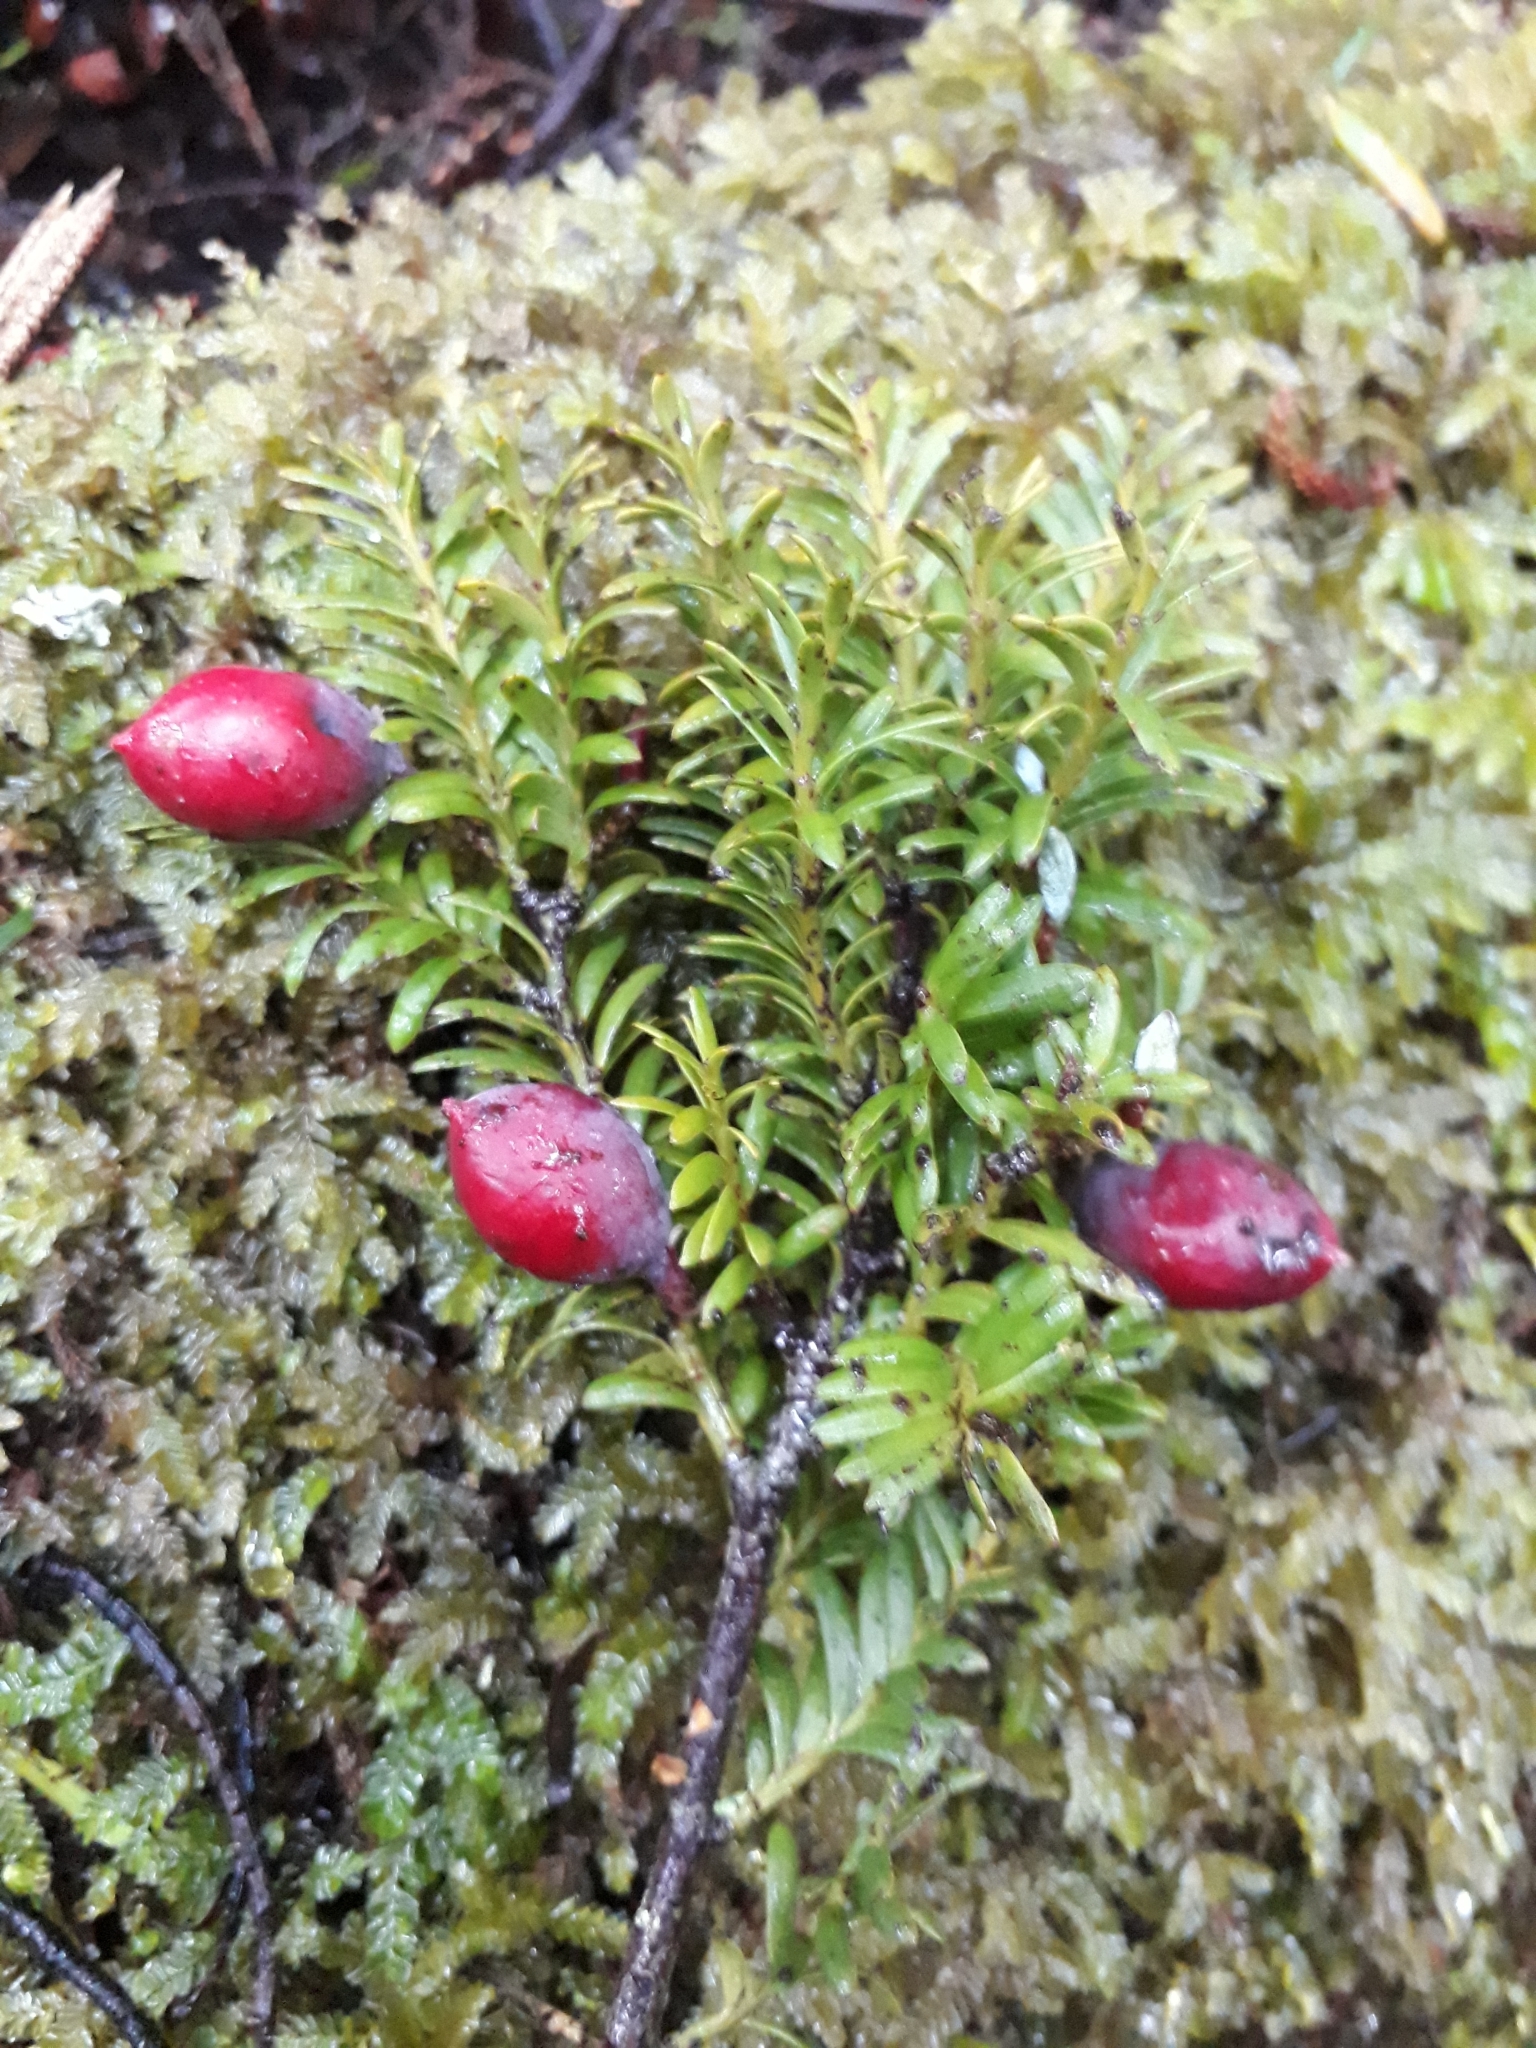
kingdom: Plantae
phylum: Tracheophyta
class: Pinopsida
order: Pinales
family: Podocarpaceae
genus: Prumnopitys
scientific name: Prumnopitys ferruginea
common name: Brown pine
